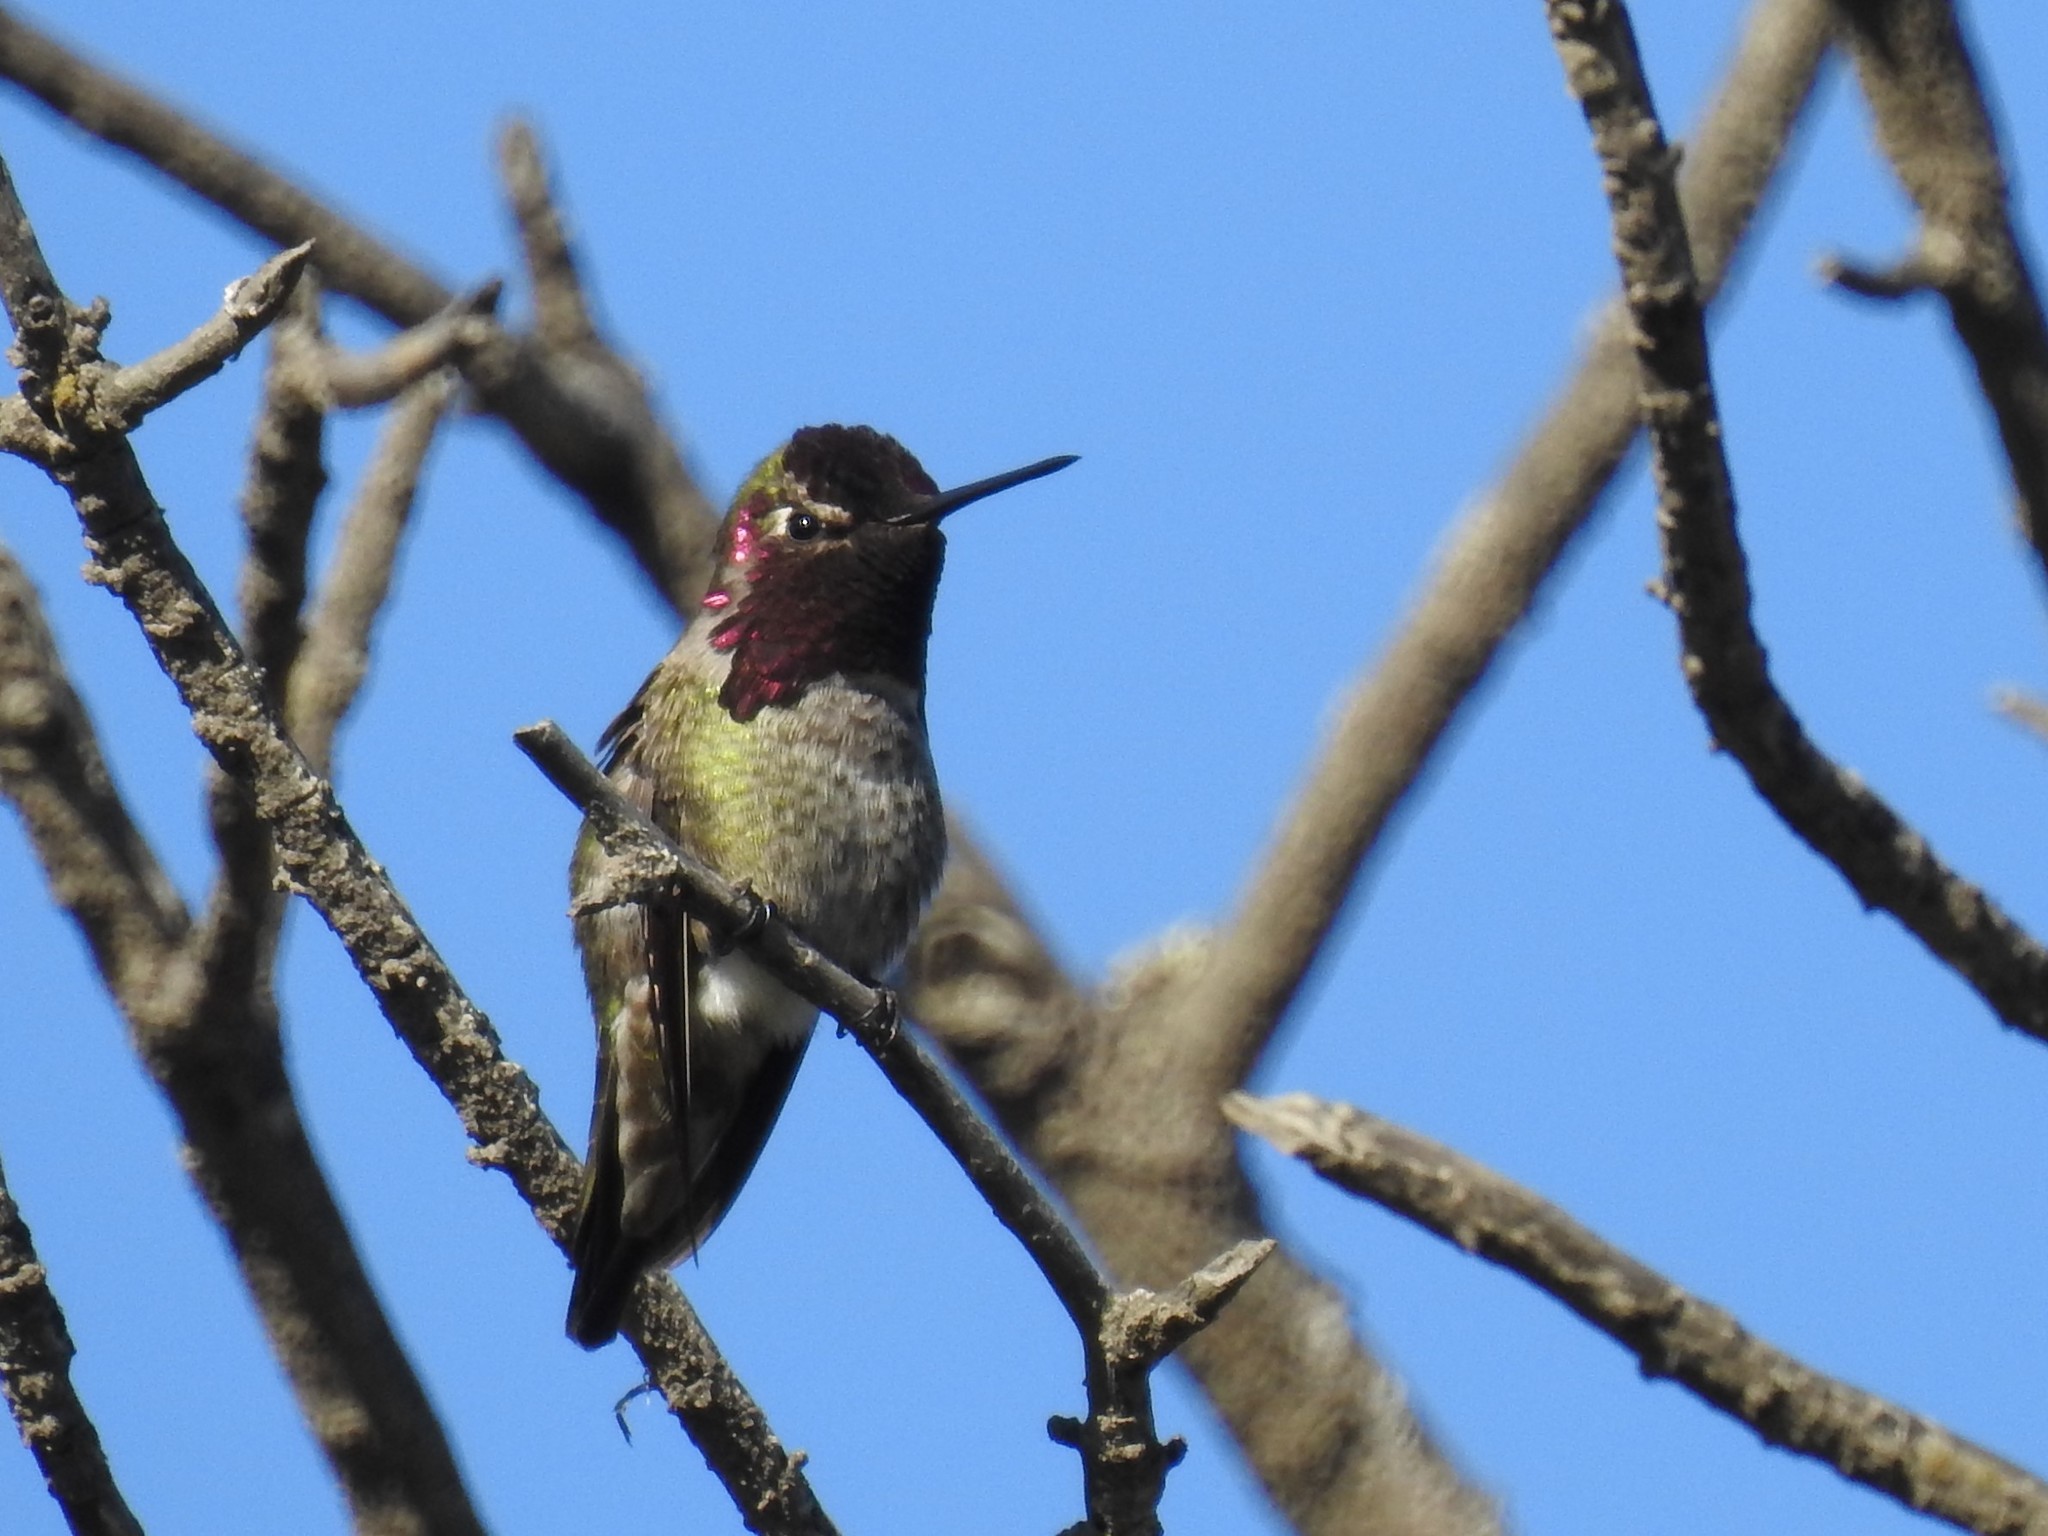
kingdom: Animalia
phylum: Chordata
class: Aves
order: Apodiformes
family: Trochilidae
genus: Calypte
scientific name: Calypte anna
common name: Anna's hummingbird
